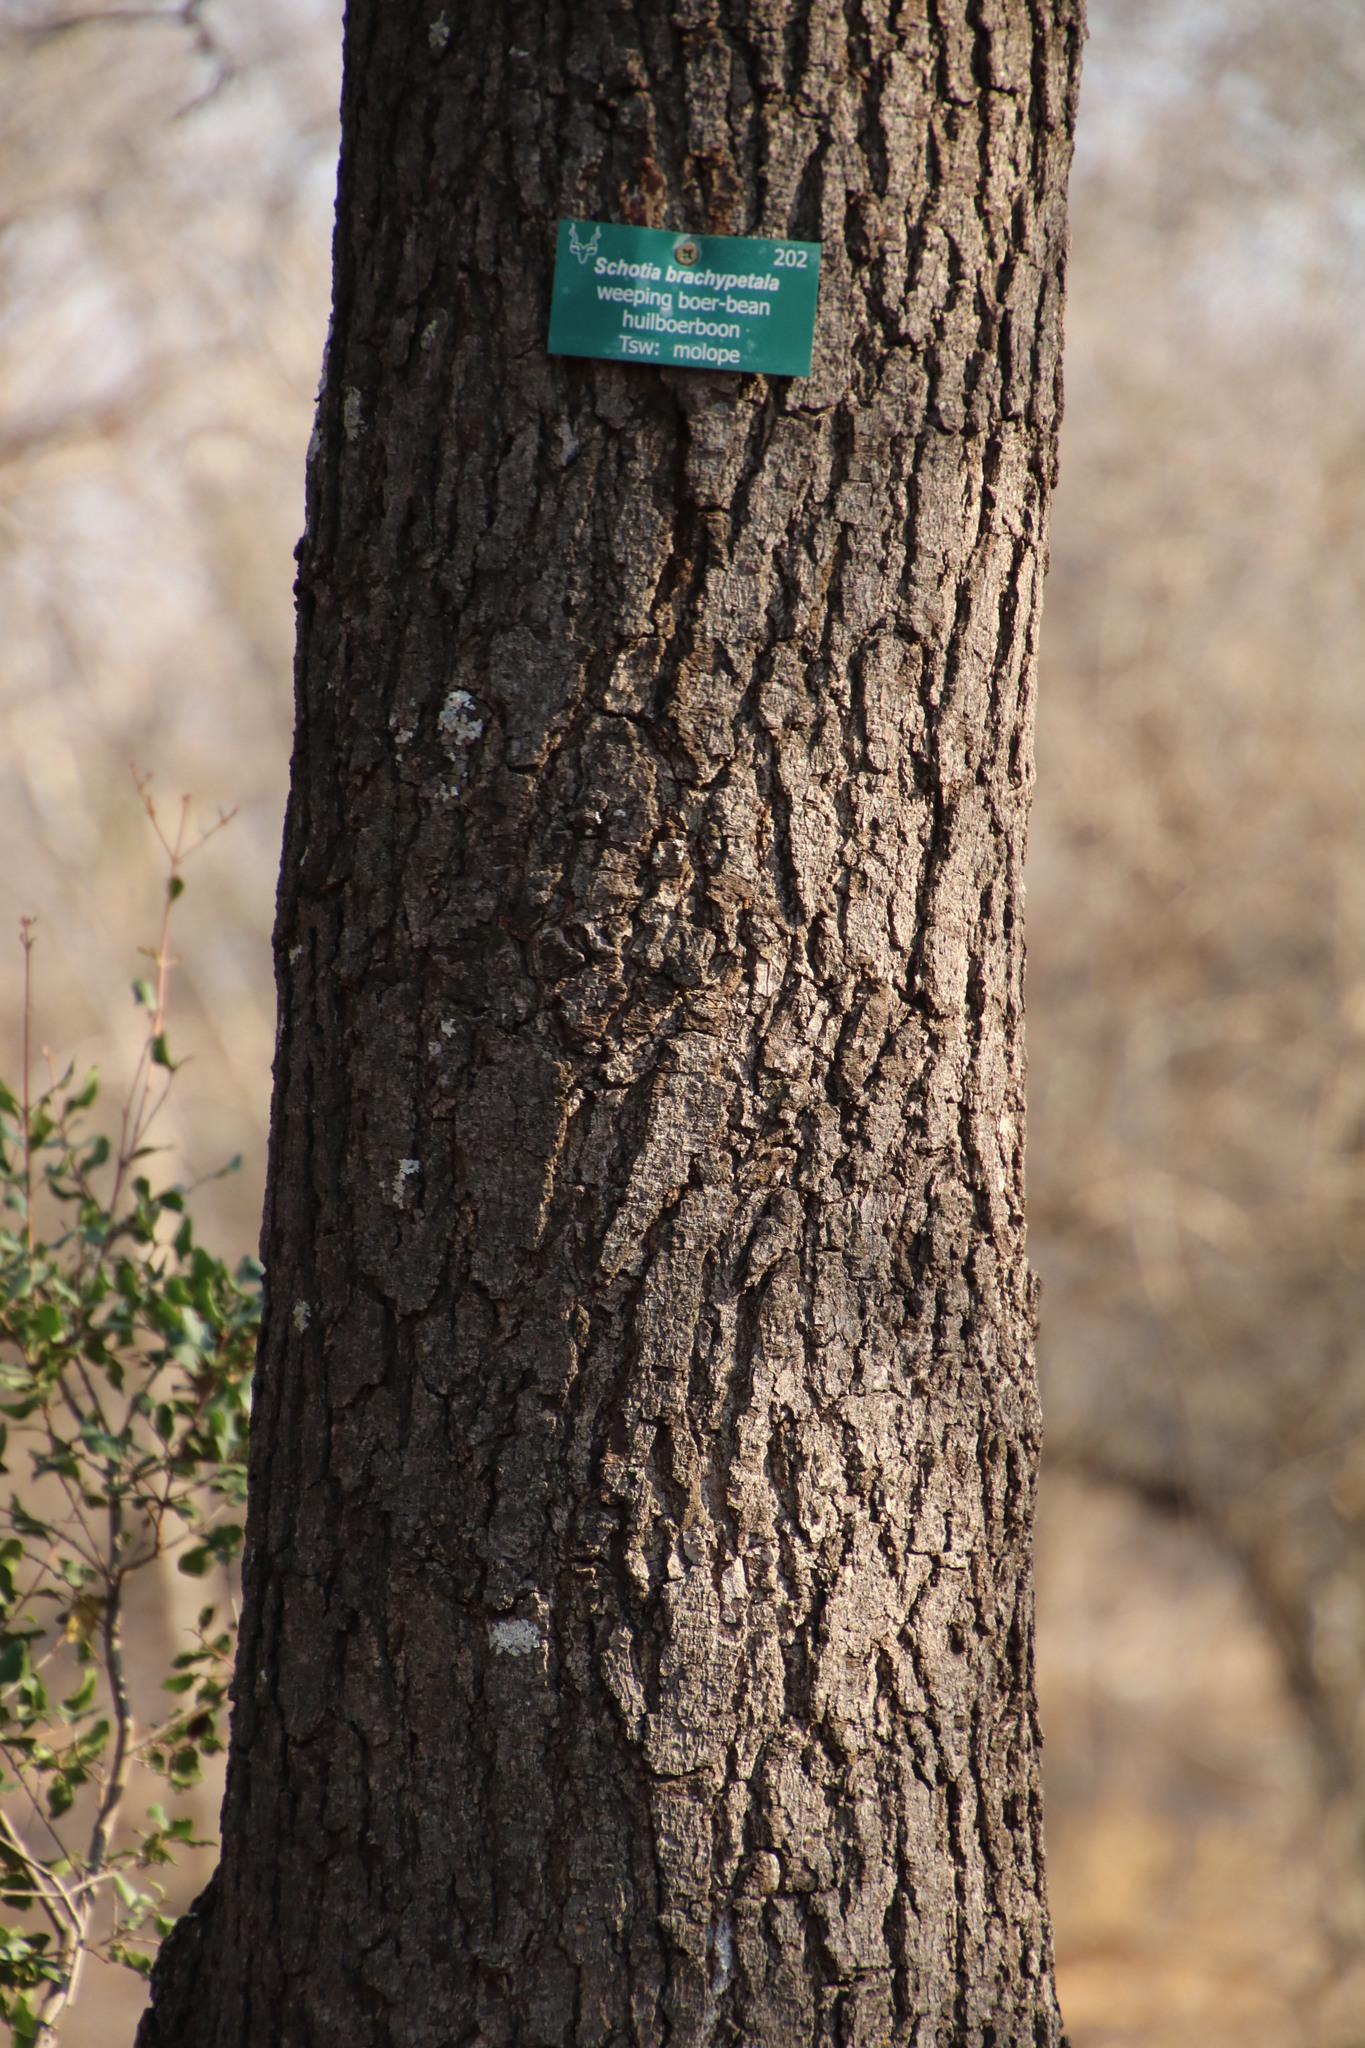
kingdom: Plantae
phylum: Tracheophyta
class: Magnoliopsida
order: Fabales
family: Fabaceae
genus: Schotia
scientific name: Schotia brachypetala
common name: Weeping boer-bean
